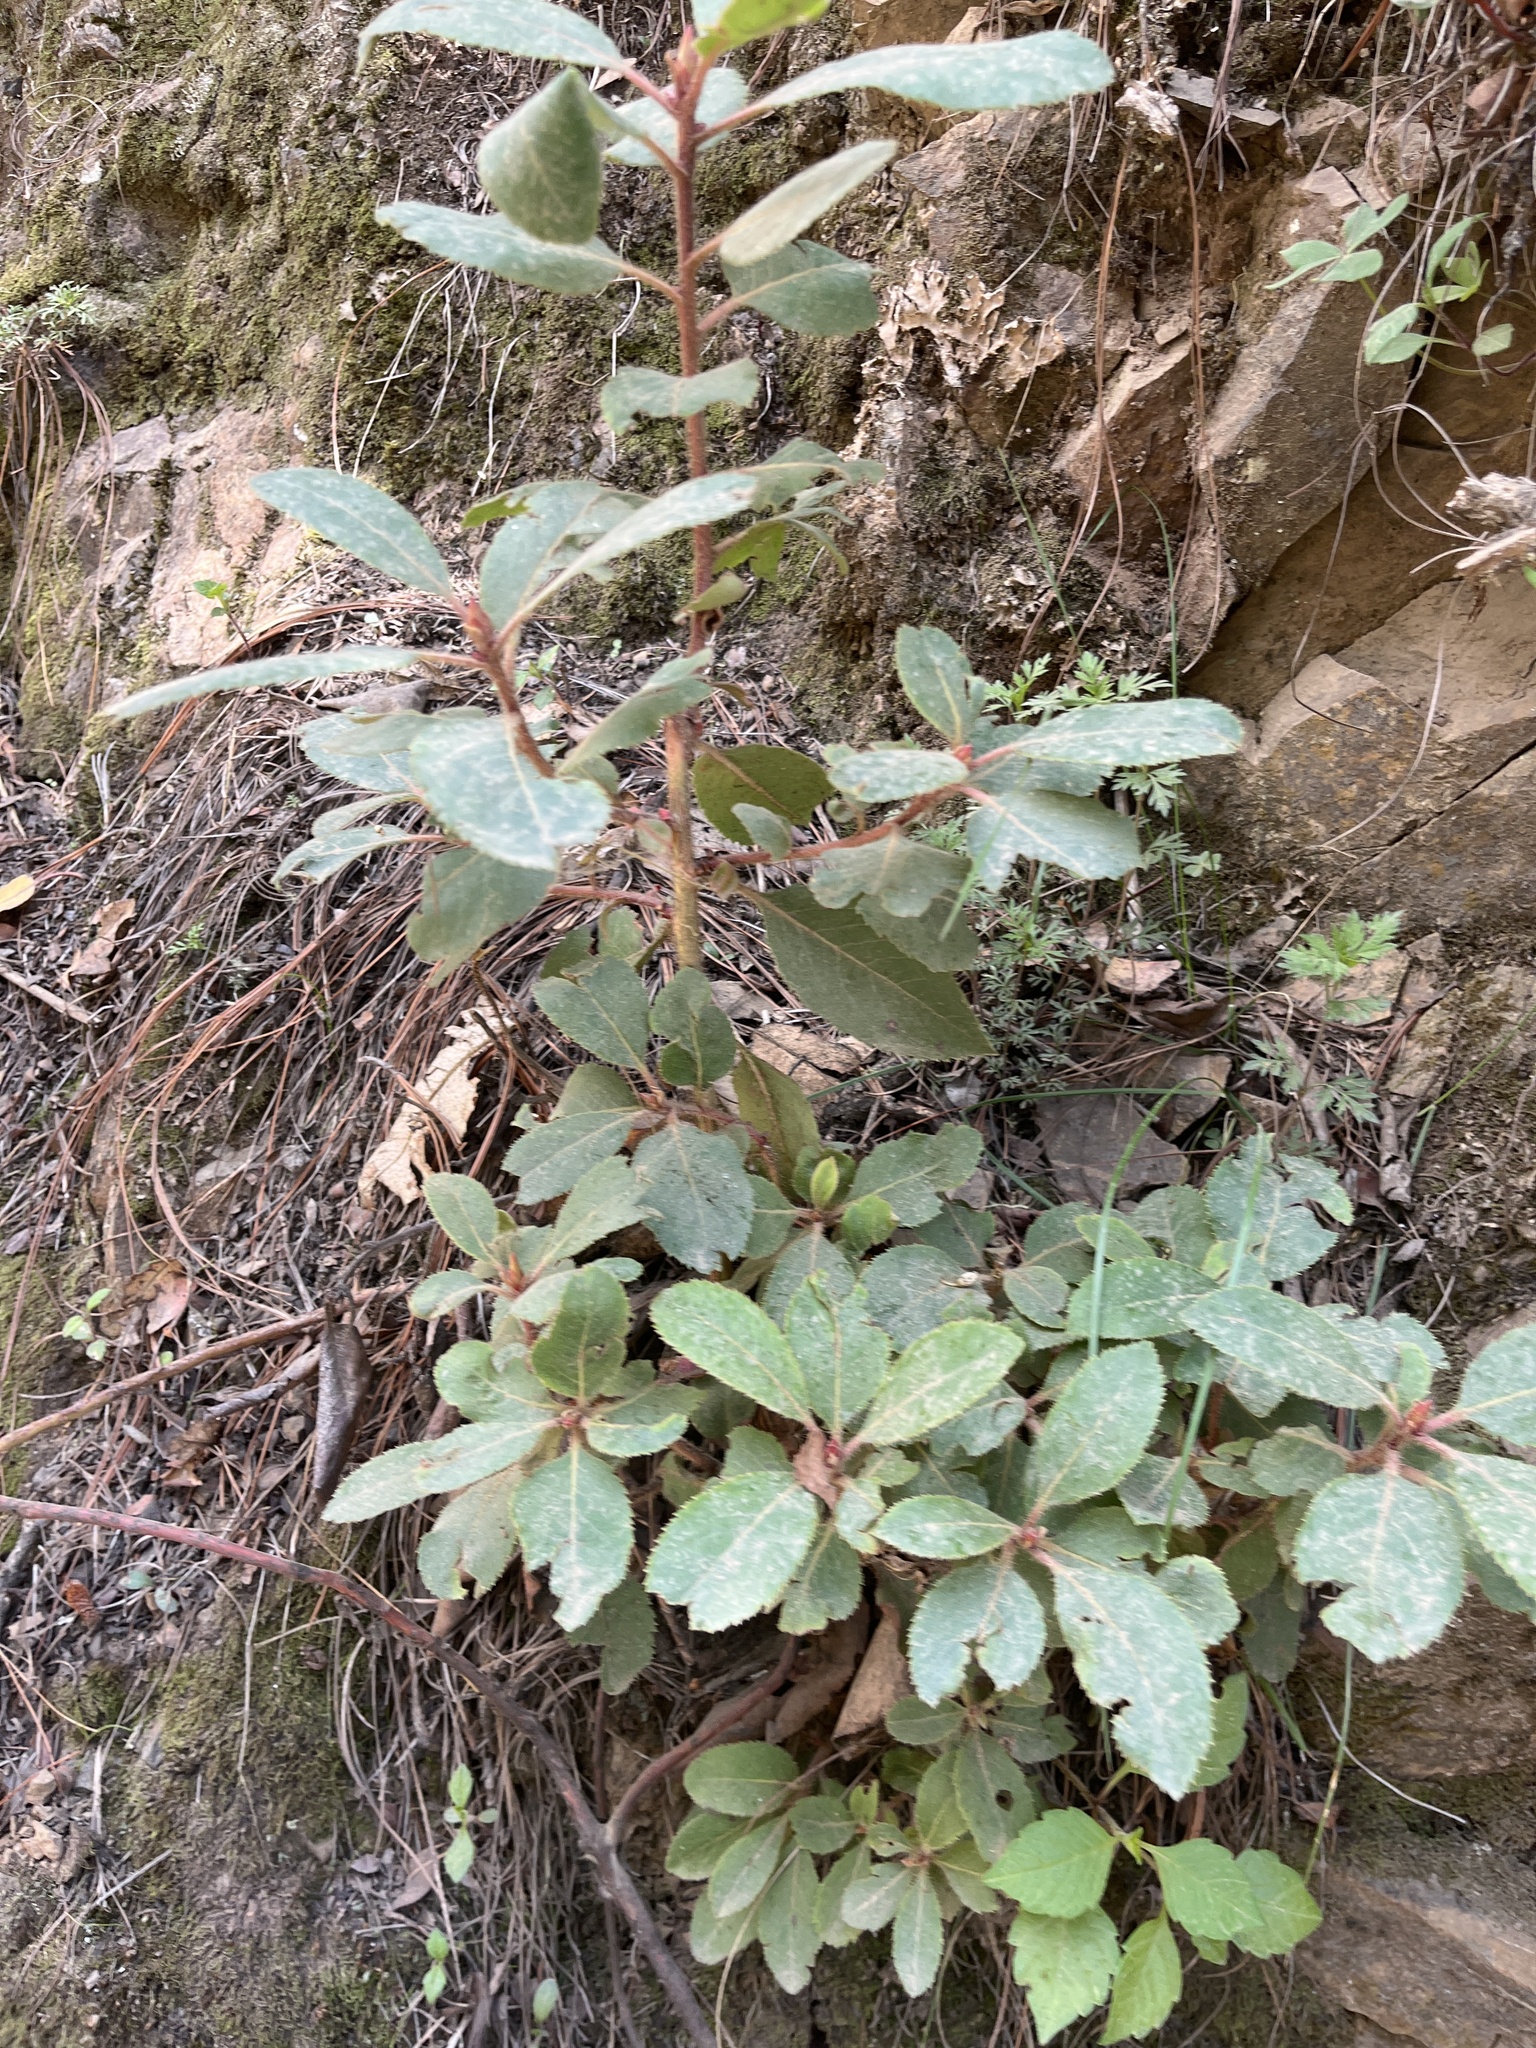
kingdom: Plantae
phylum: Tracheophyta
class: Magnoliopsida
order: Ericales
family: Ericaceae
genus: Arbutus
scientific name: Arbutus xalapensis
